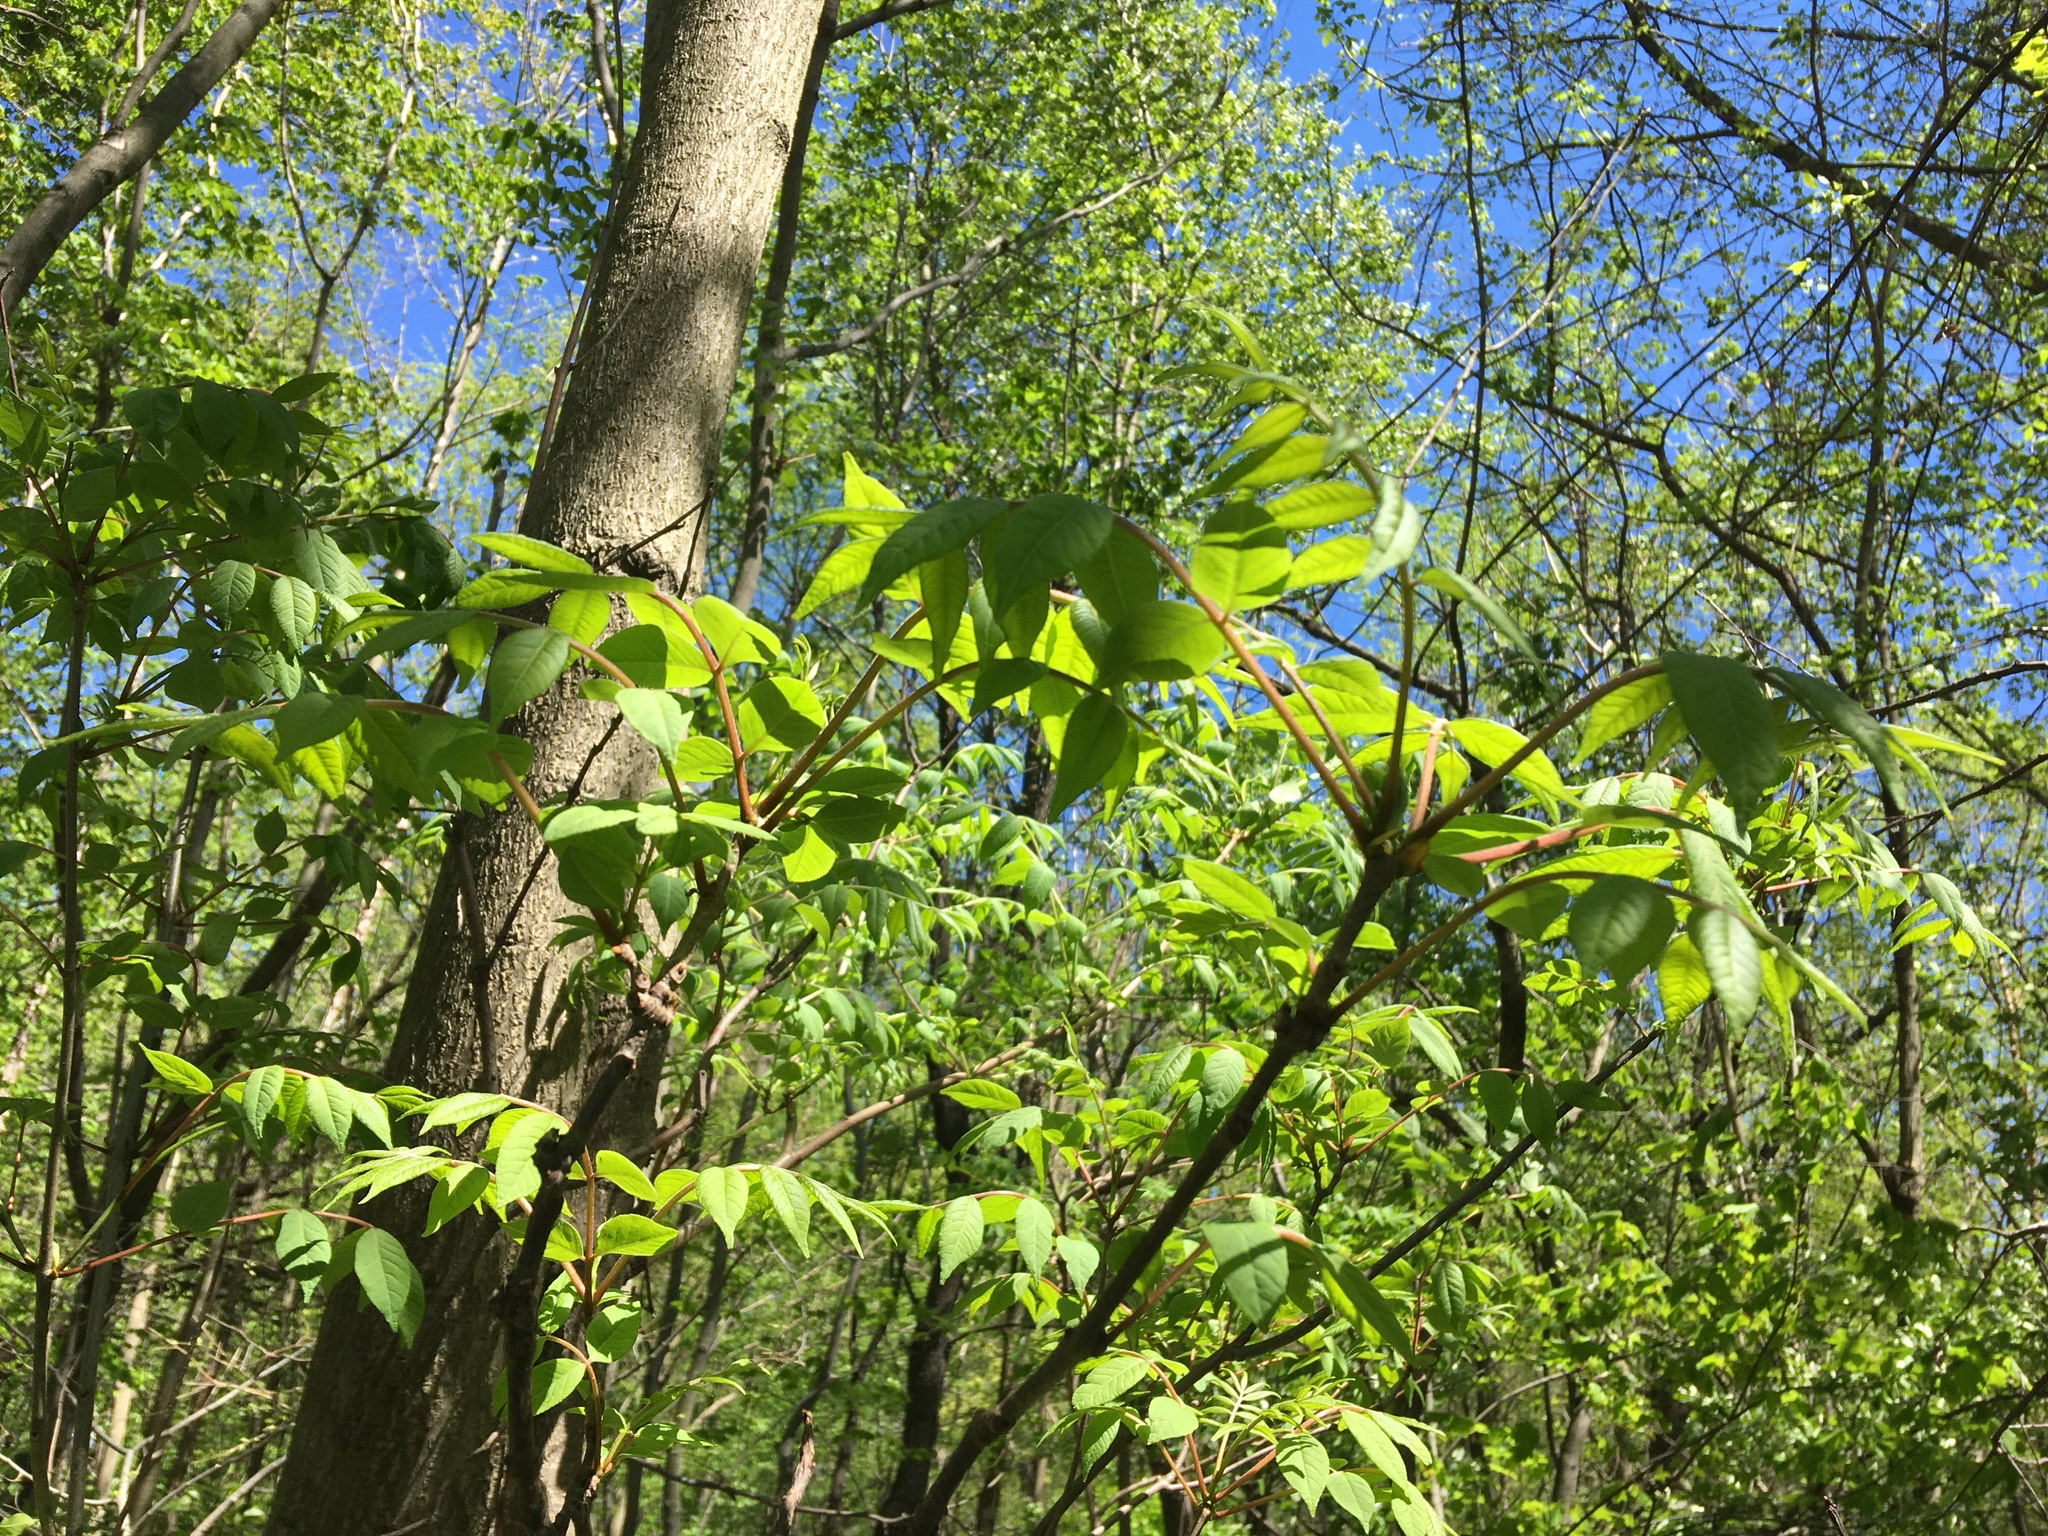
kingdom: Plantae
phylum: Tracheophyta
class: Magnoliopsida
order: Sapindales
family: Meliaceae
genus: Toona
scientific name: Toona sinensis
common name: Red toon
